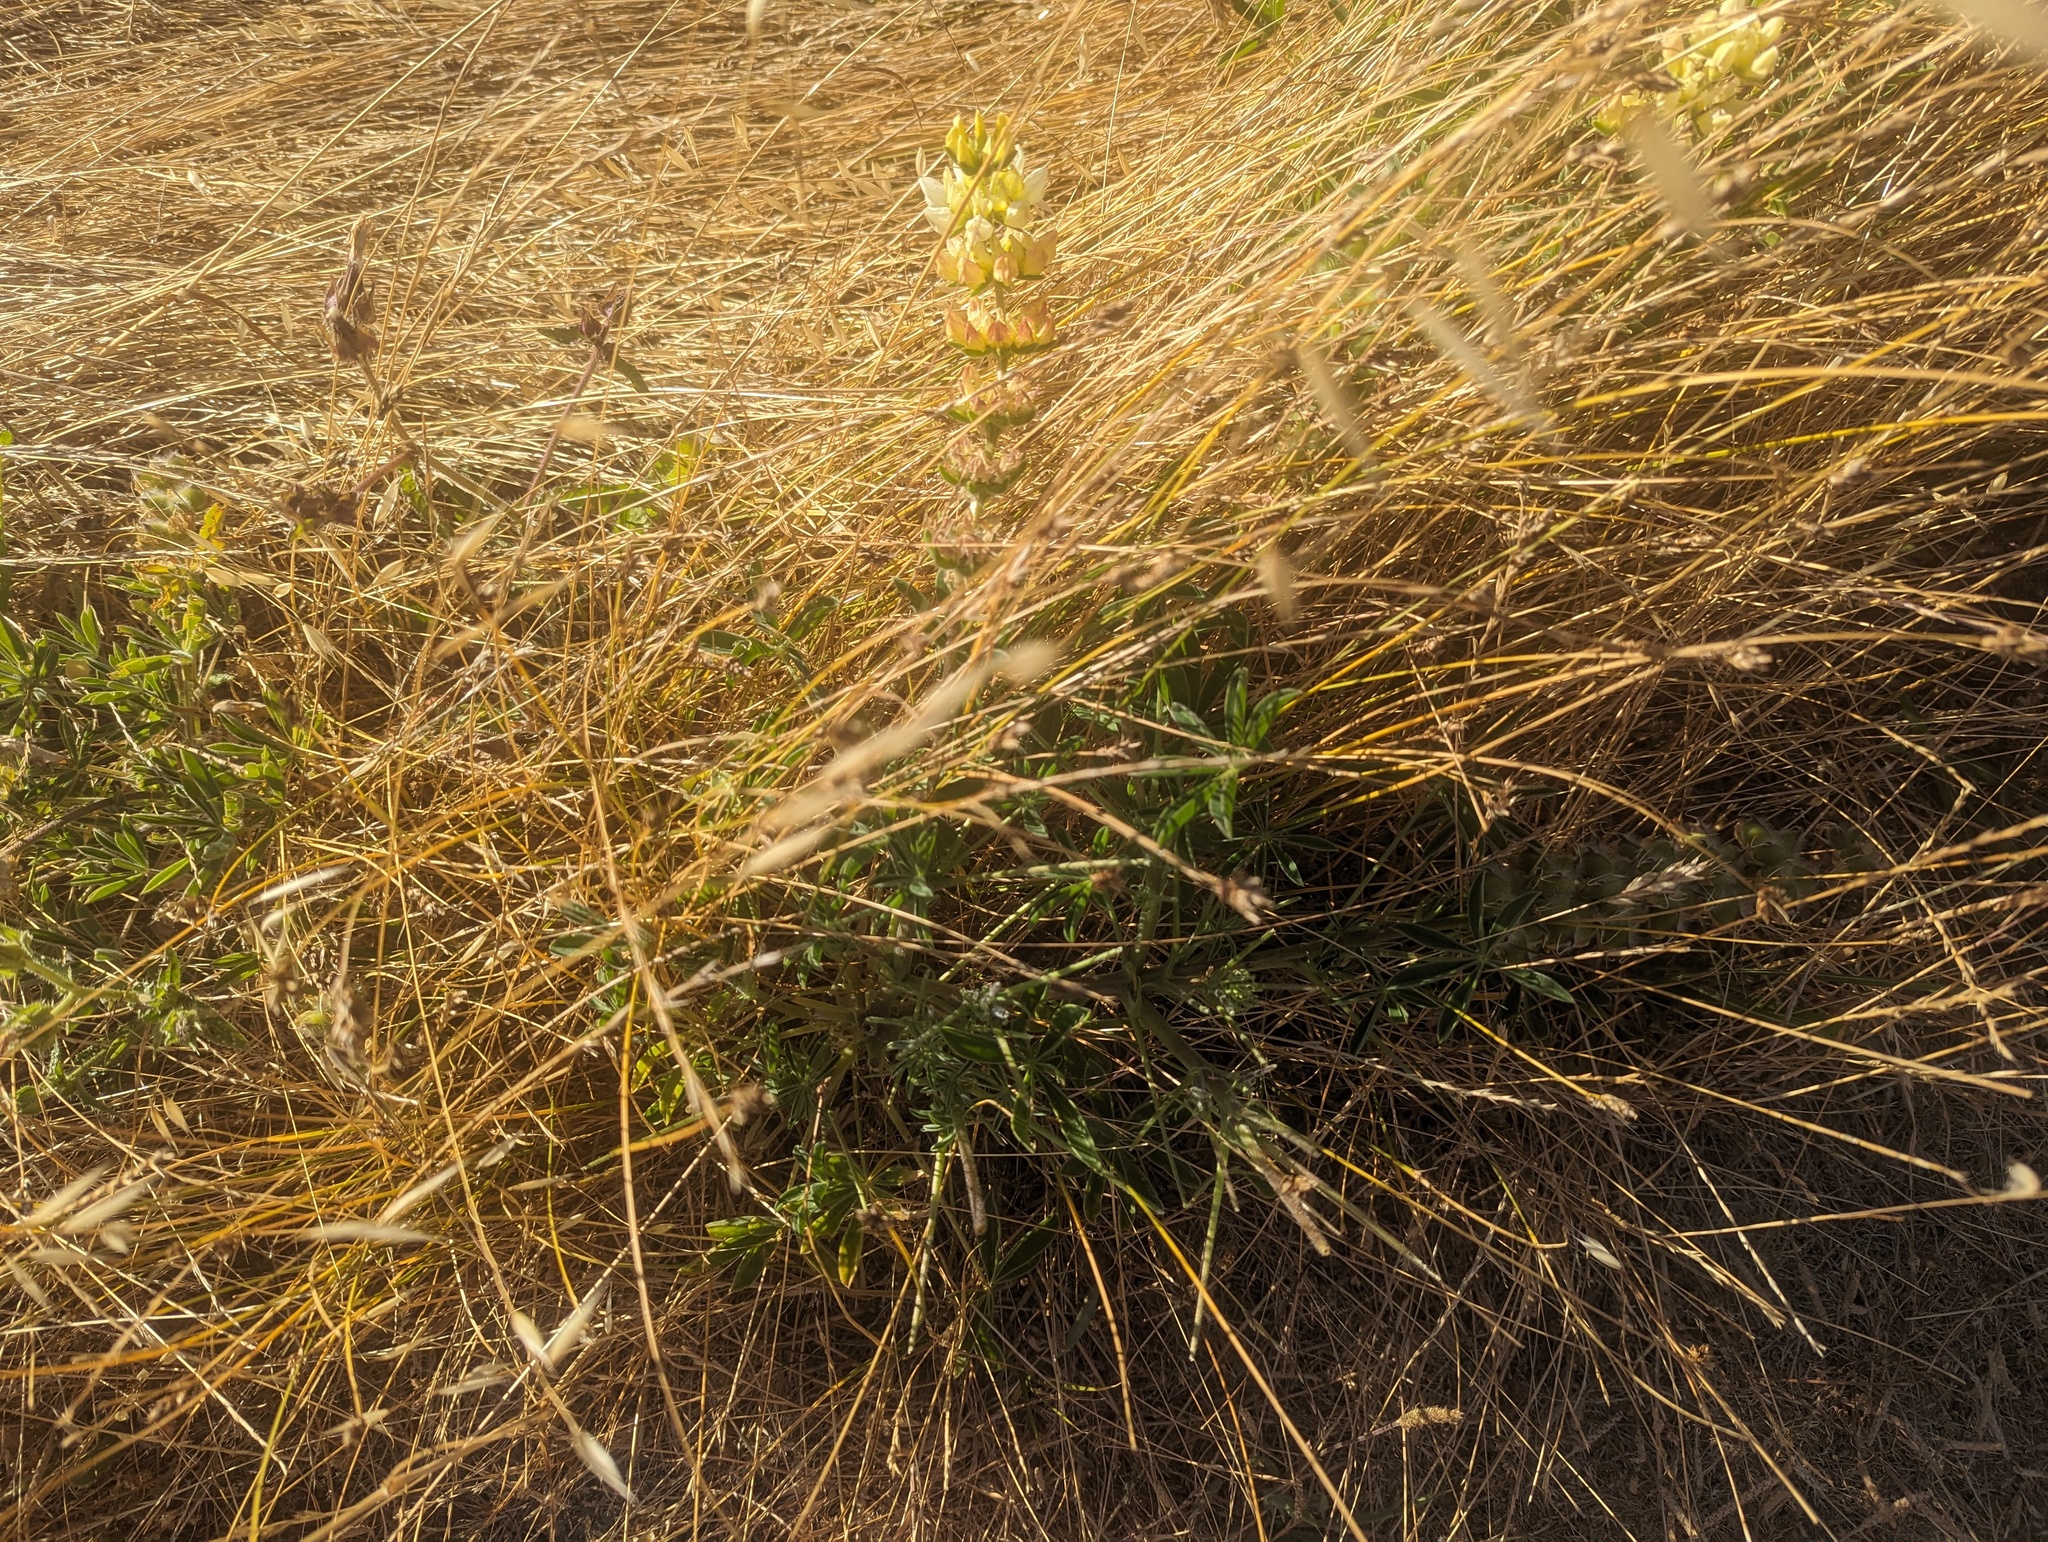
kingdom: Plantae
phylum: Tracheophyta
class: Magnoliopsida
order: Fabales
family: Fabaceae
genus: Lupinus
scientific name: Lupinus microcarpus
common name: Chick lupine
